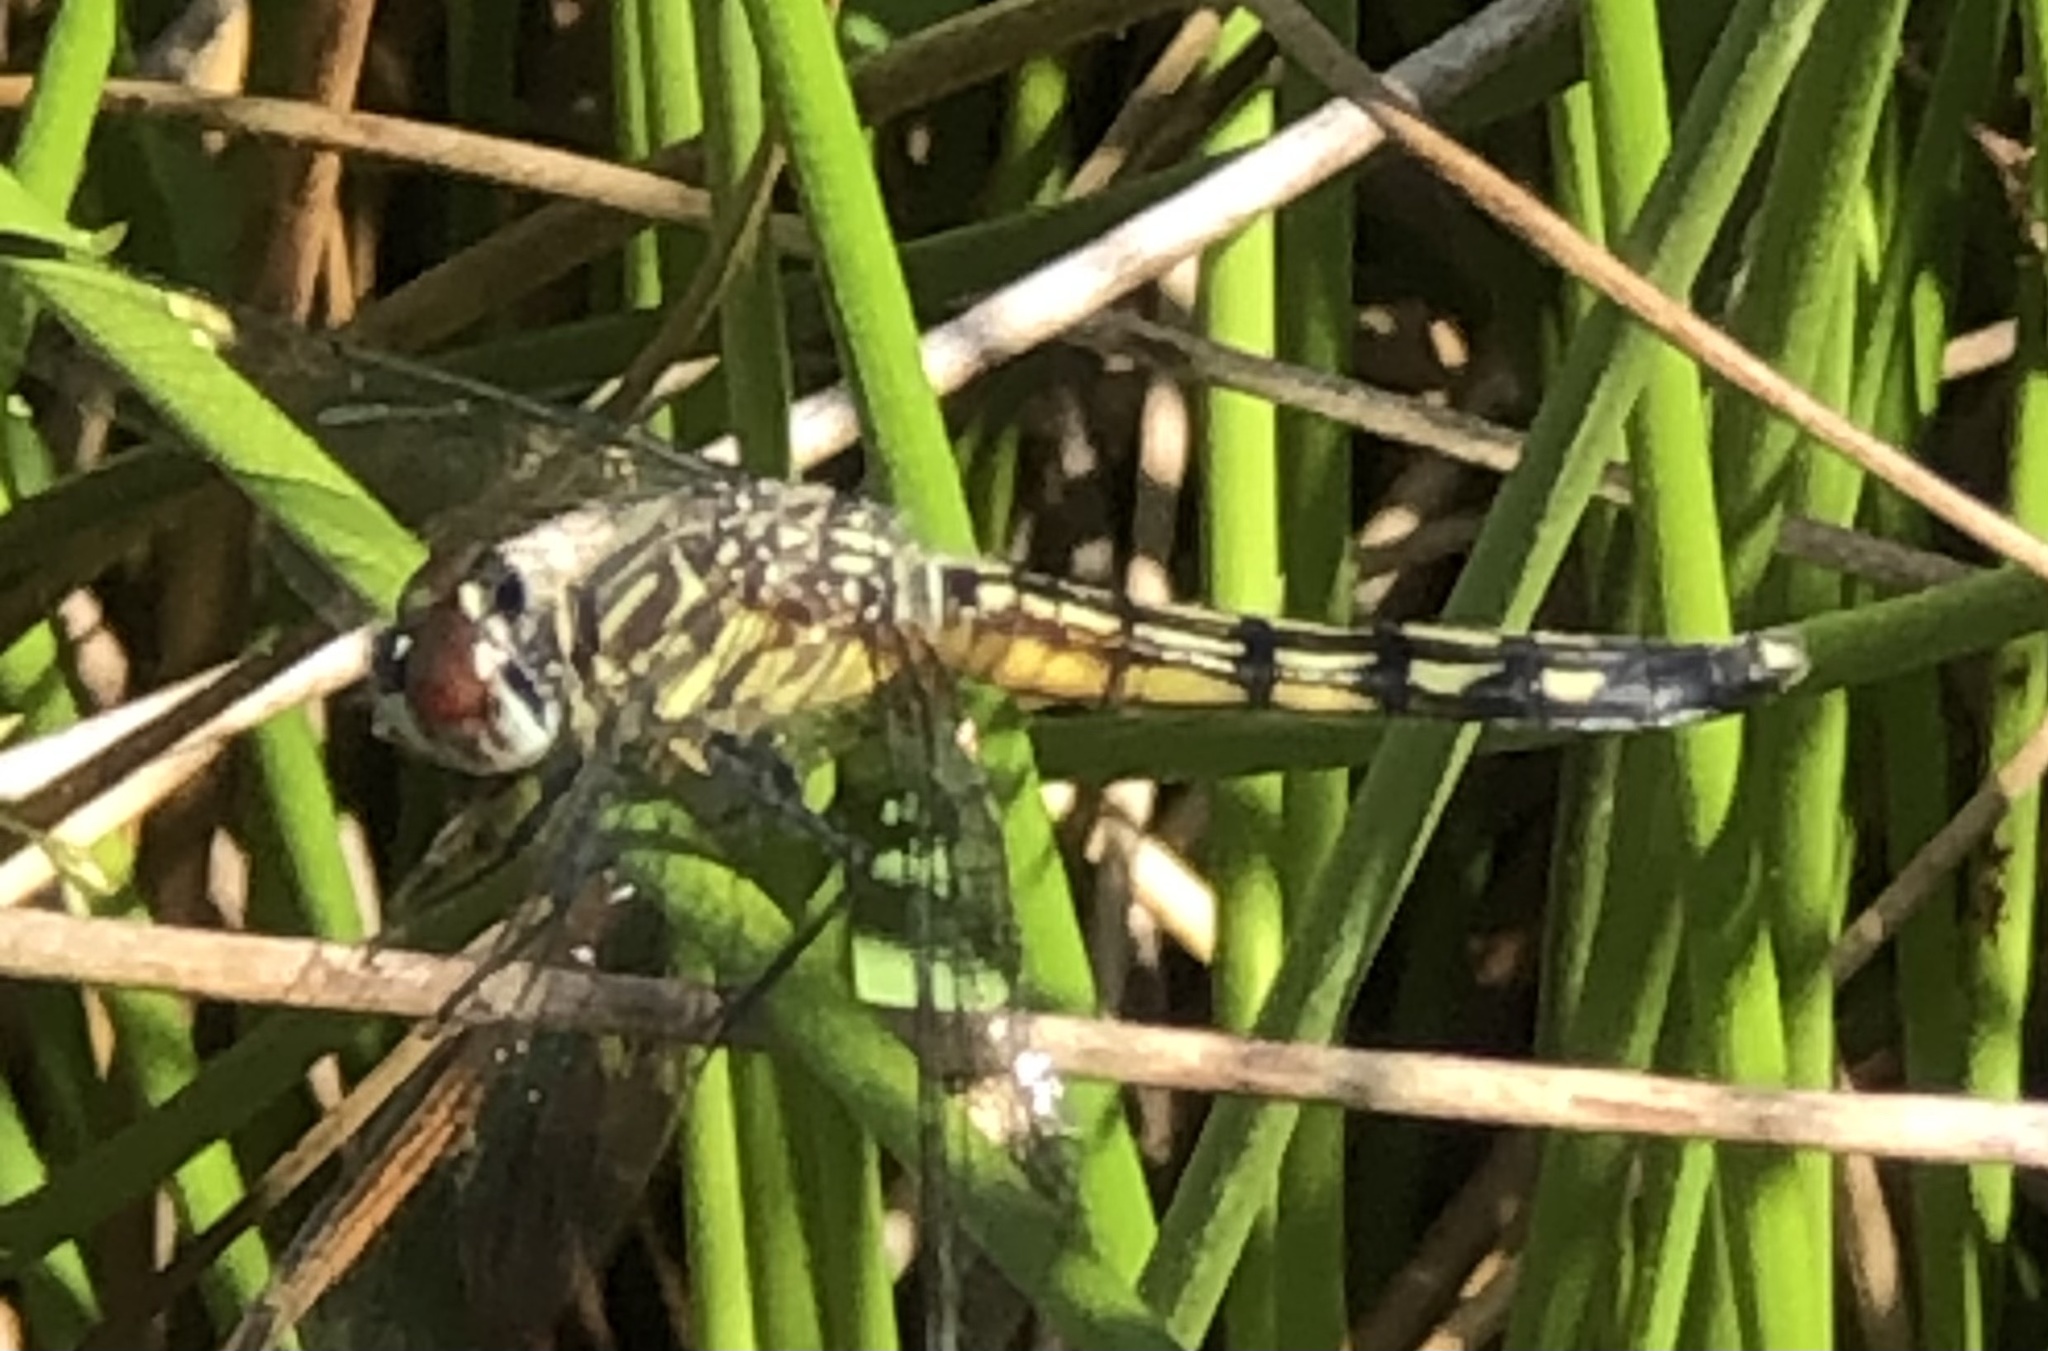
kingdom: Animalia
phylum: Arthropoda
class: Insecta
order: Odonata
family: Libellulidae
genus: Pachydiplax
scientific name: Pachydiplax longipennis
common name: Blue dasher
